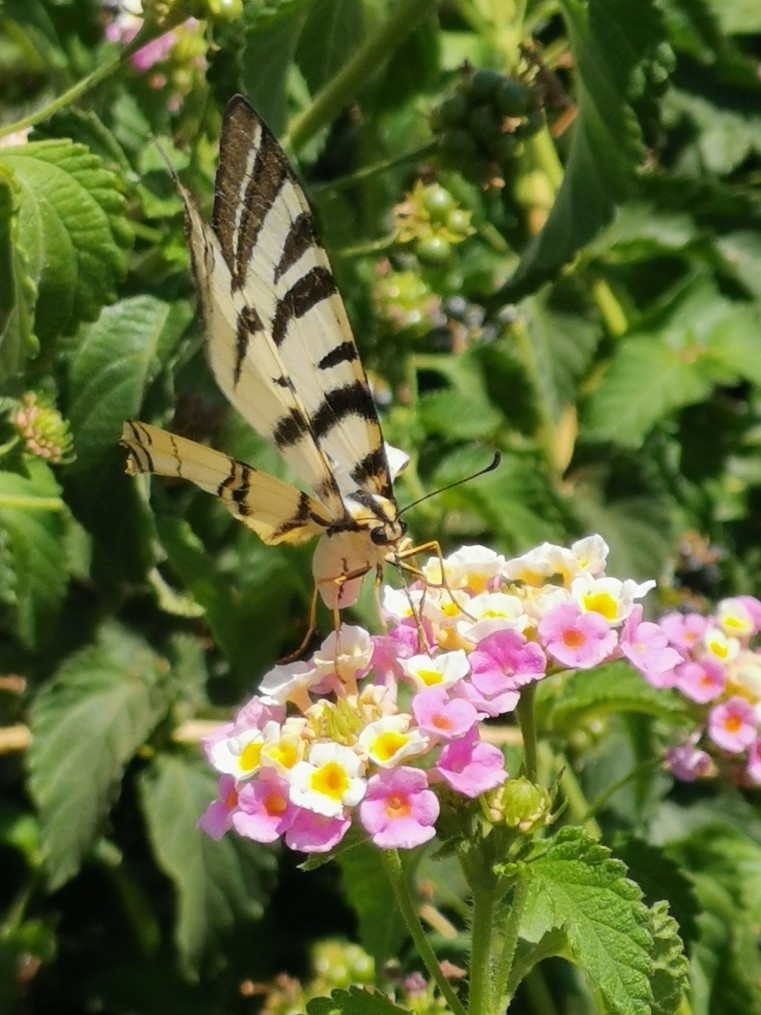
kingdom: Animalia
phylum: Arthropoda
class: Insecta
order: Lepidoptera
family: Papilionidae
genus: Iphiclides
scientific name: Iphiclides podalirius
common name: Scarce swallowtail
